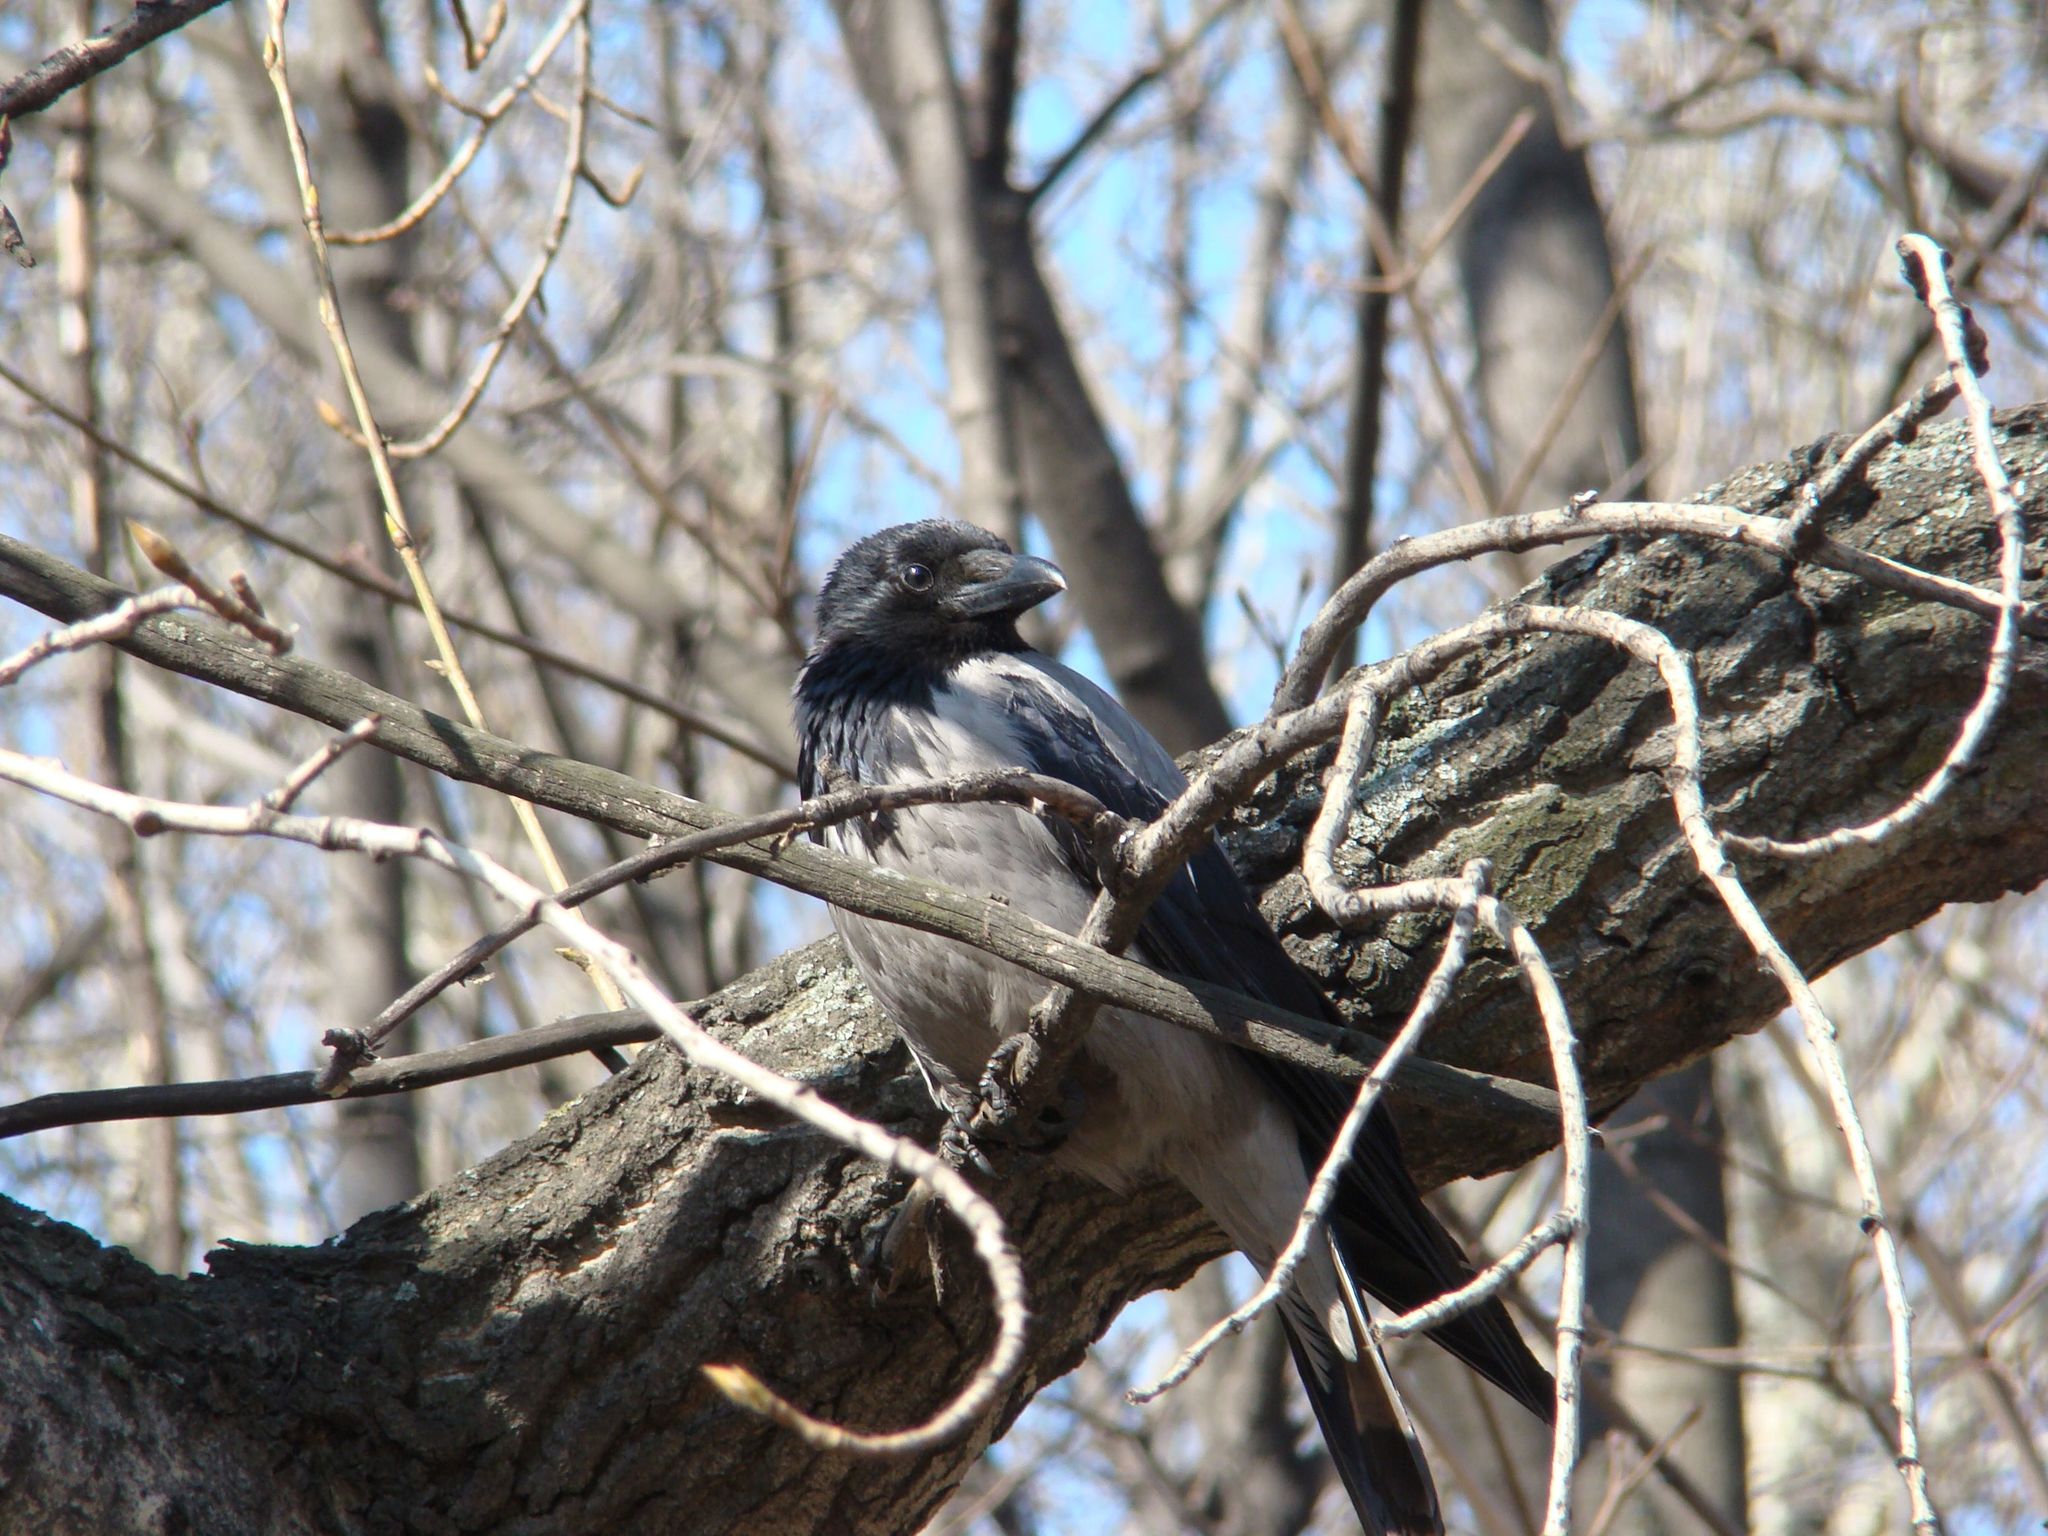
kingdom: Animalia
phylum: Chordata
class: Aves
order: Passeriformes
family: Corvidae
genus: Corvus
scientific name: Corvus cornix
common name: Hooded crow
